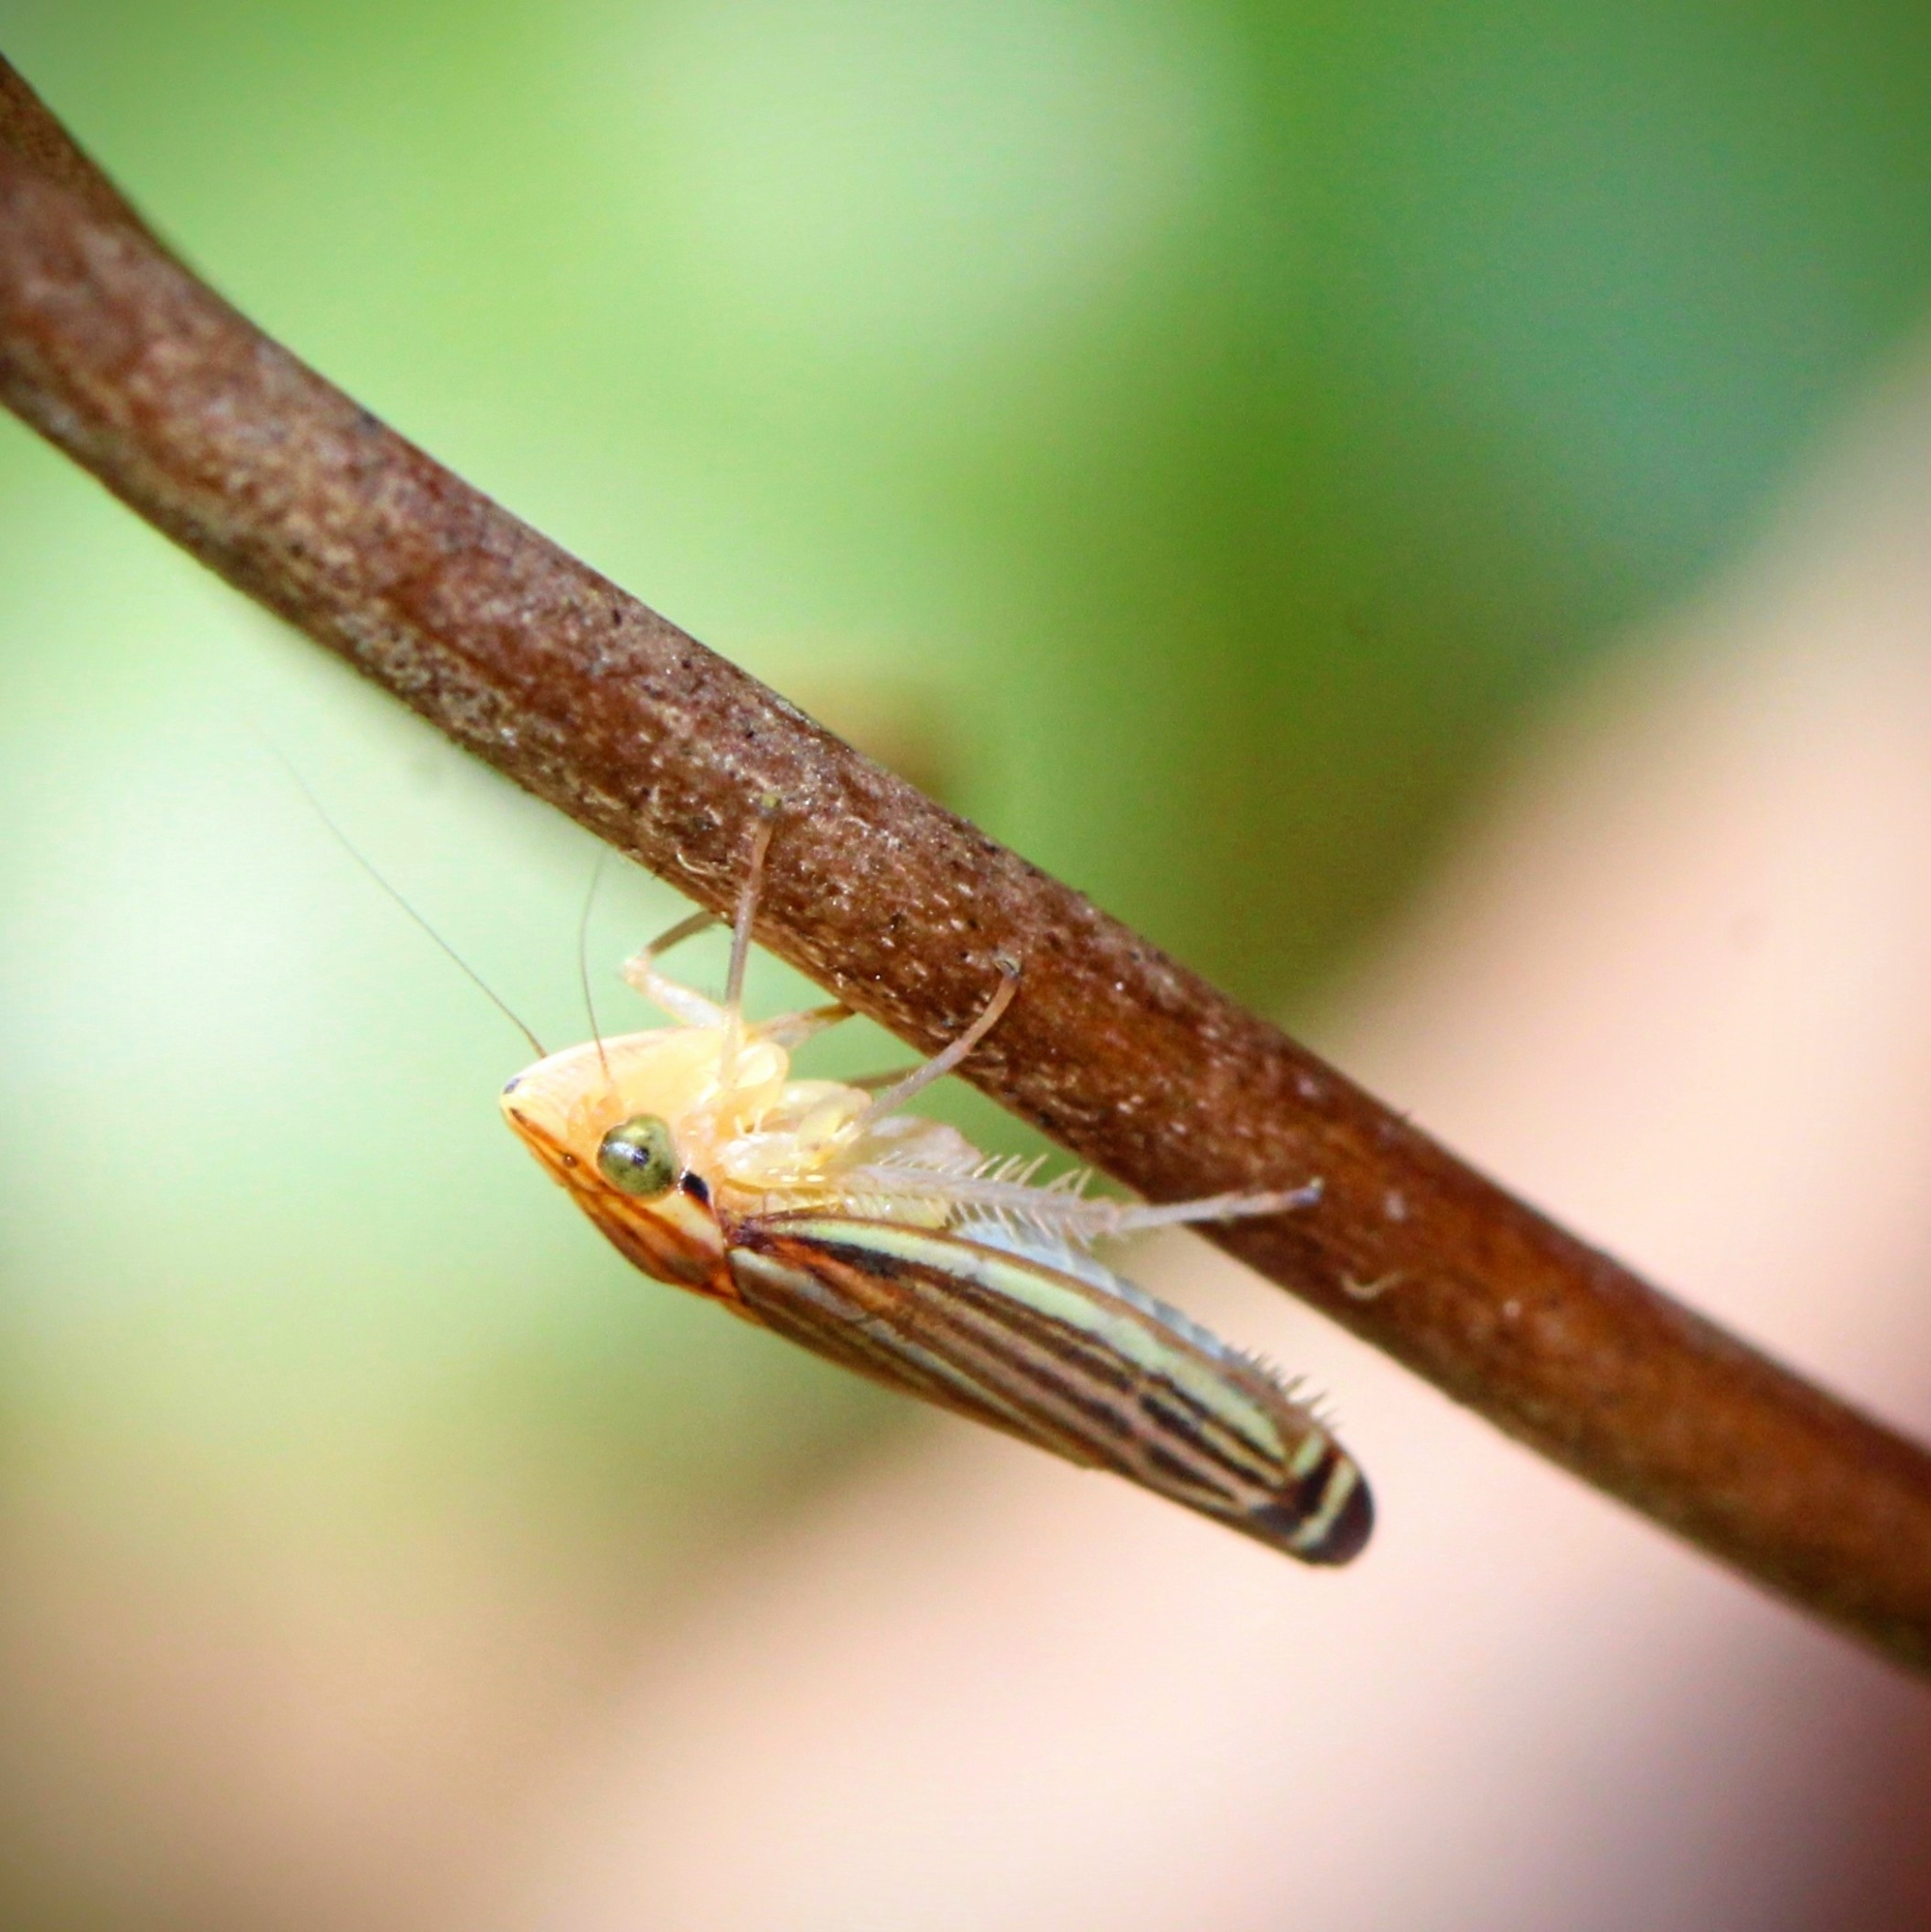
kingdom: Animalia
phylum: Arthropoda
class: Insecta
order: Hemiptera
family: Cicadellidae
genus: Sibovia
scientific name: Sibovia occatoria
